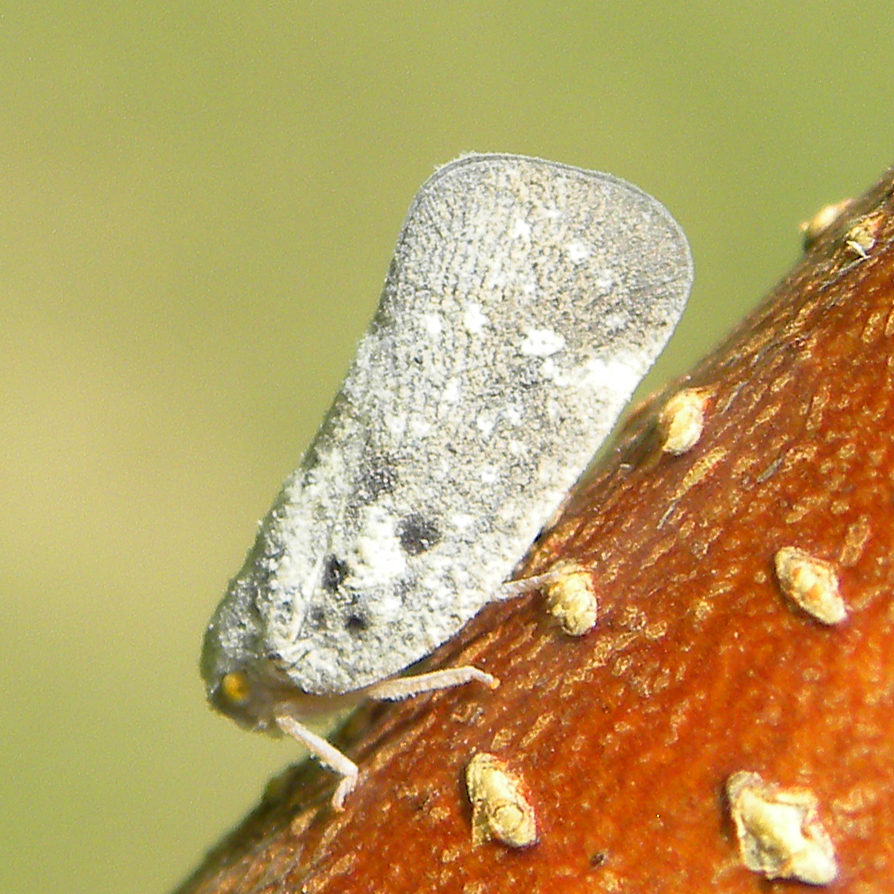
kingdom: Animalia
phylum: Arthropoda
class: Insecta
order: Hemiptera
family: Flatidae
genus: Metcalfa
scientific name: Metcalfa pruinosa
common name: Citrus flatid planthopper
